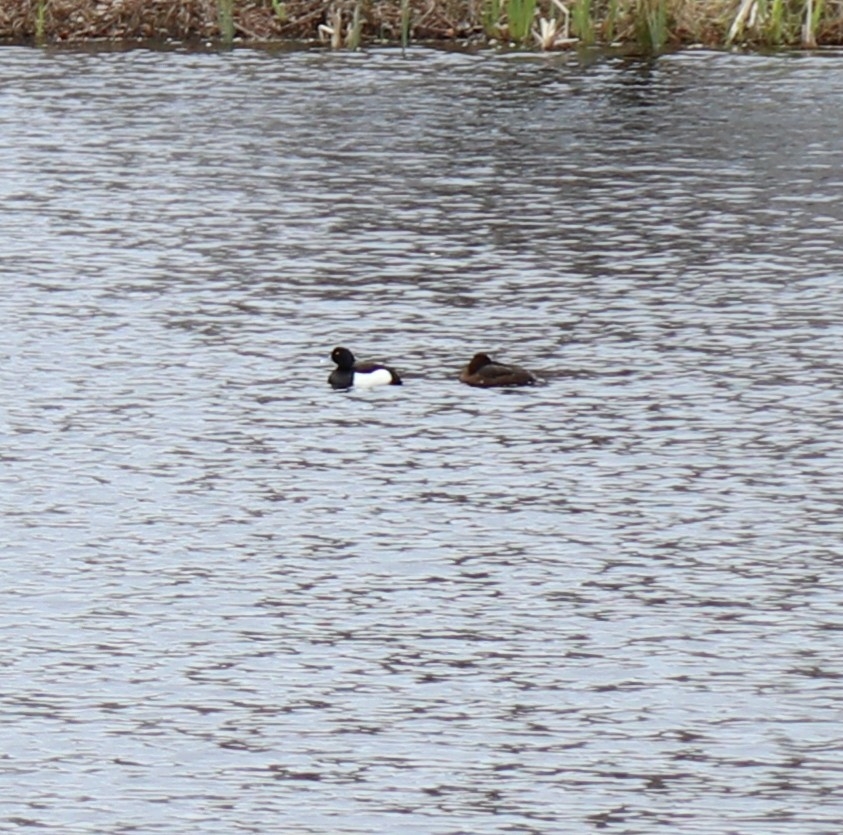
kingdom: Animalia
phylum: Chordata
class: Aves
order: Anseriformes
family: Anatidae
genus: Aythya
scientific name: Aythya fuligula
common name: Tufted duck
